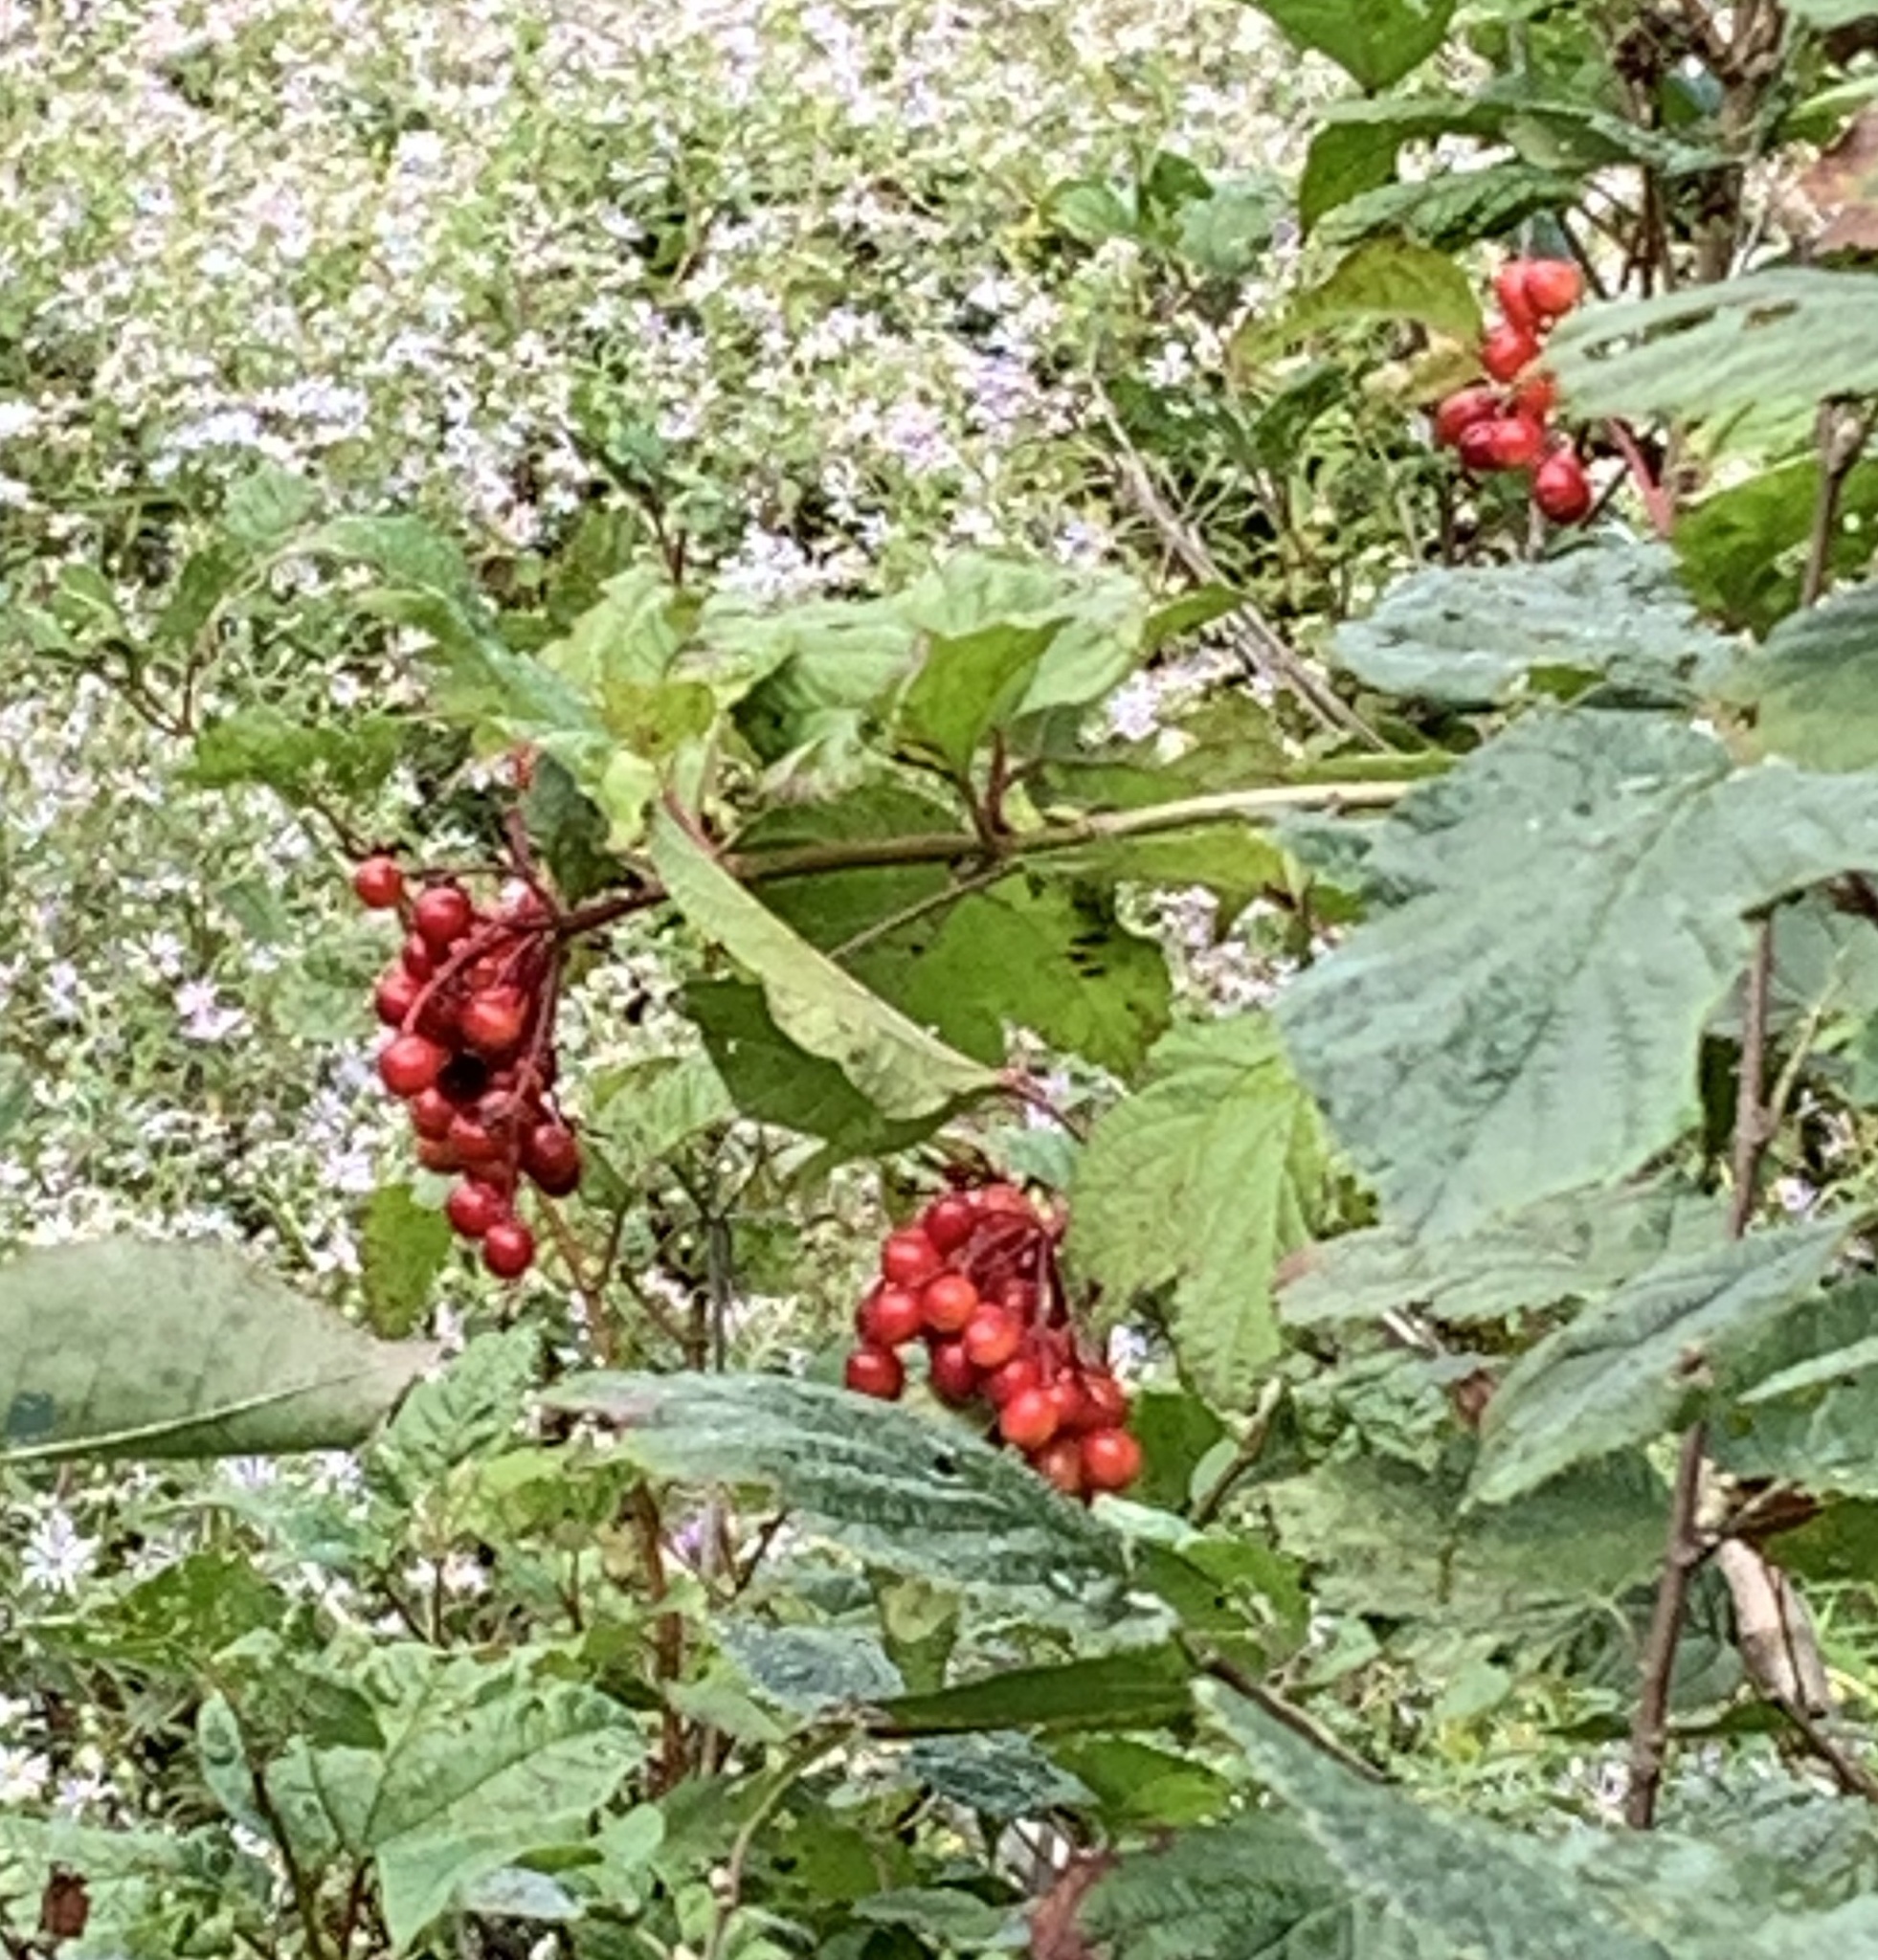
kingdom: Plantae
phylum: Tracheophyta
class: Magnoliopsida
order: Dipsacales
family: Viburnaceae
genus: Viburnum
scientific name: Viburnum opulus
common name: Guelder-rose
